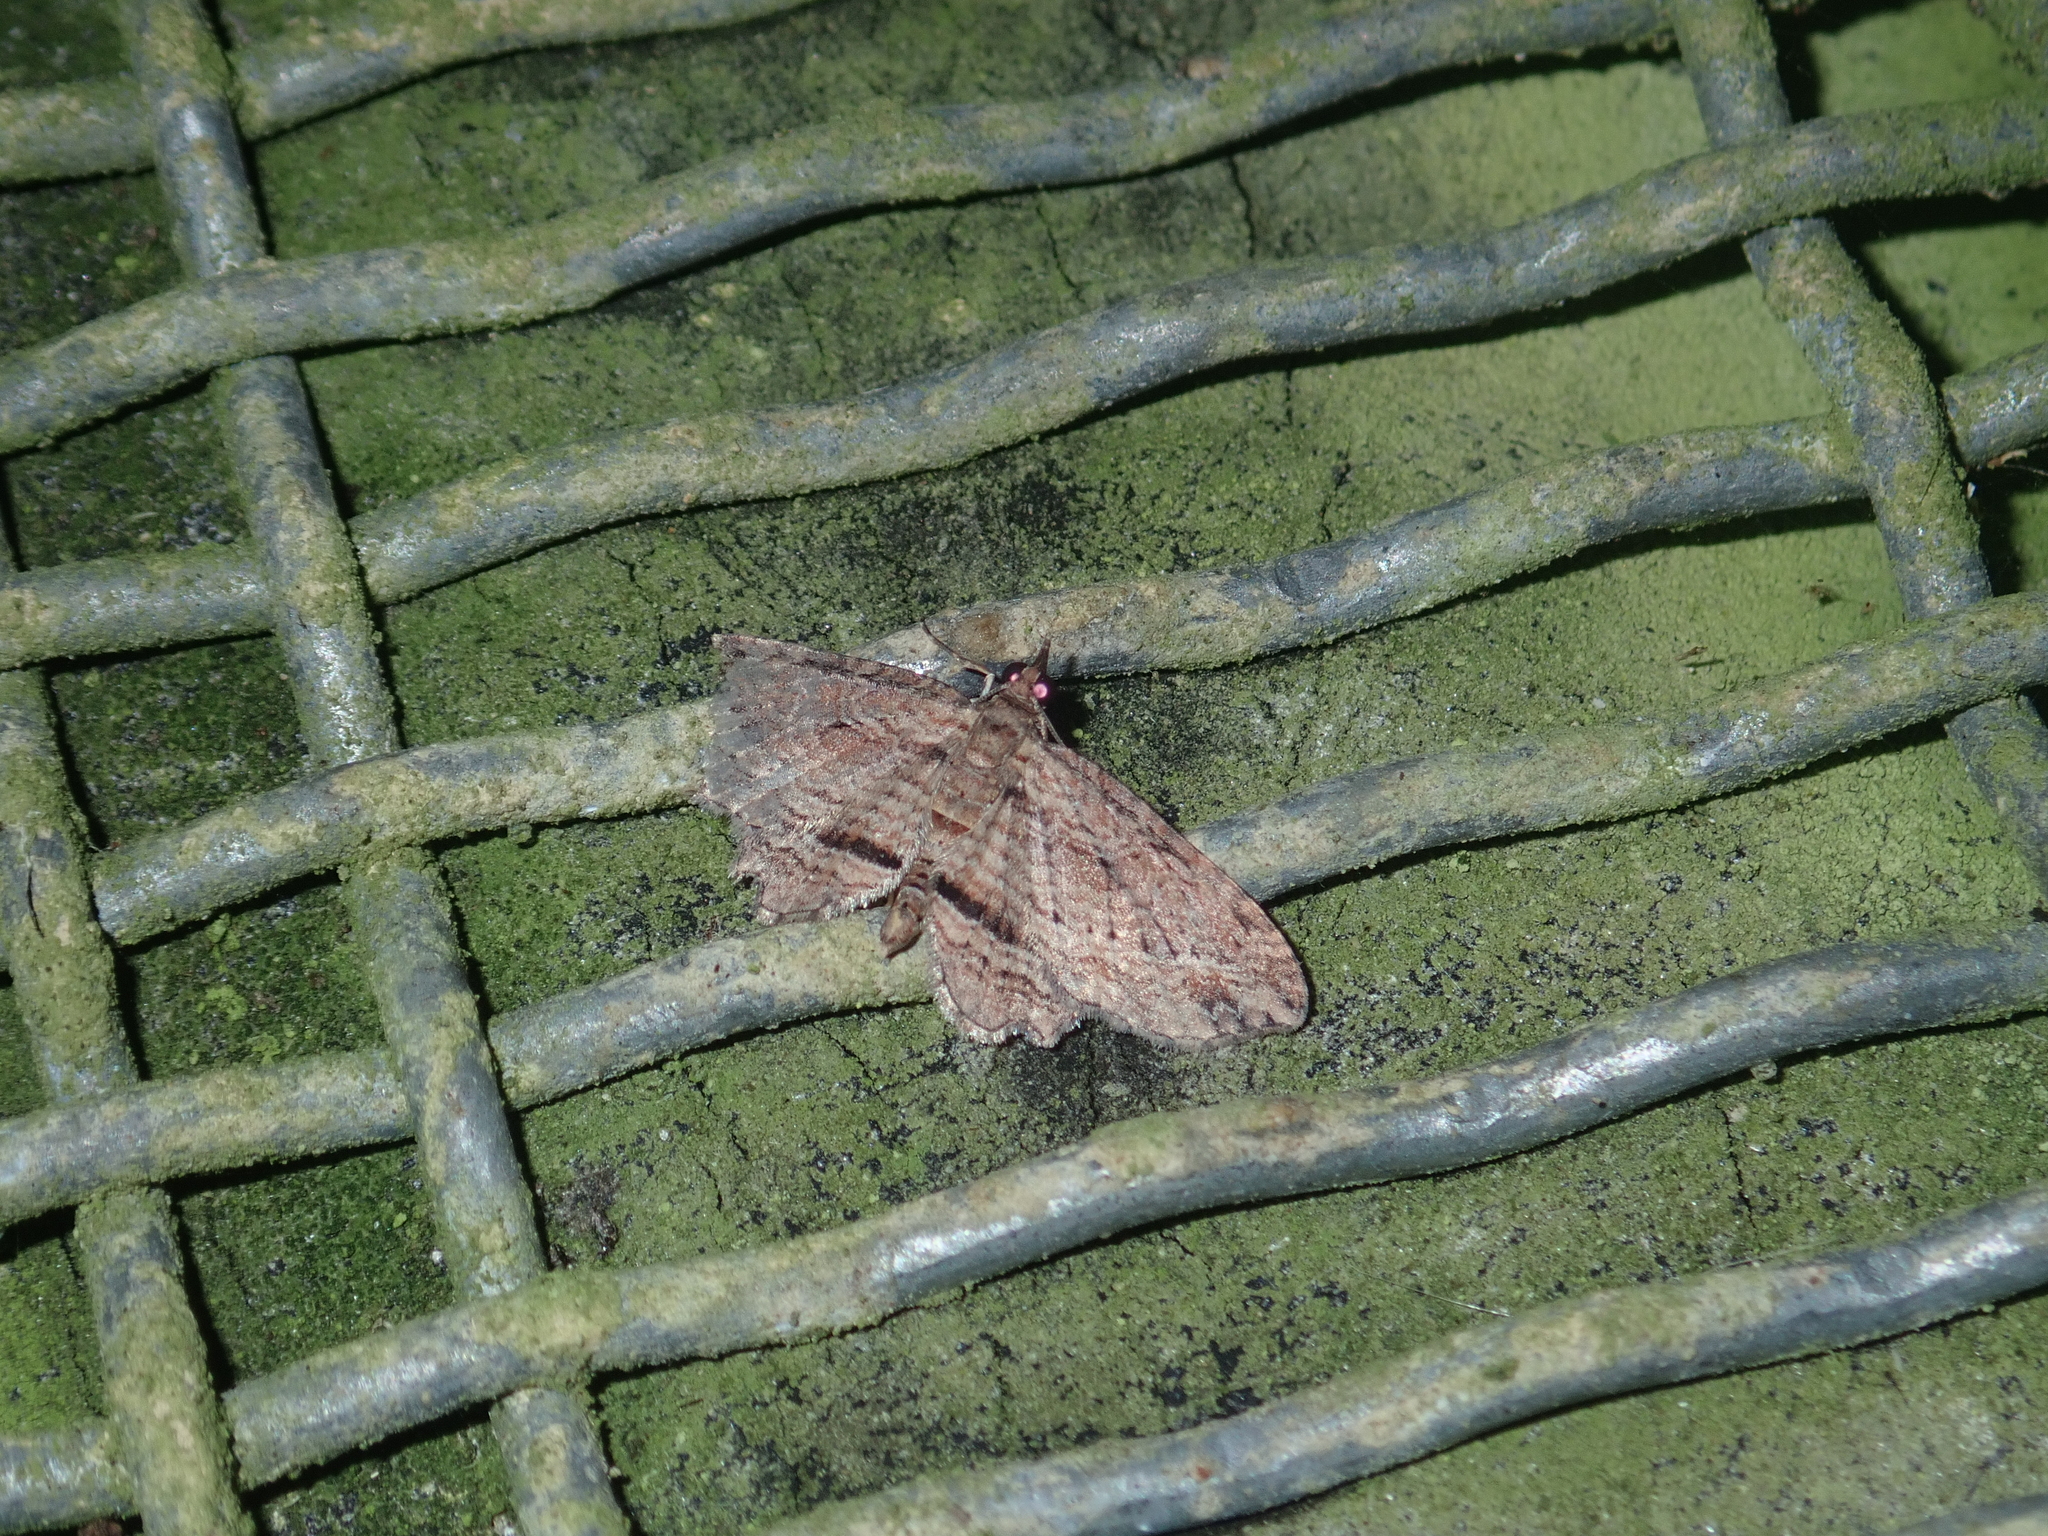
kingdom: Animalia
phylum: Arthropoda
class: Insecta
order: Lepidoptera
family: Geometridae
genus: Chloroclystis
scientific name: Chloroclystis filata
